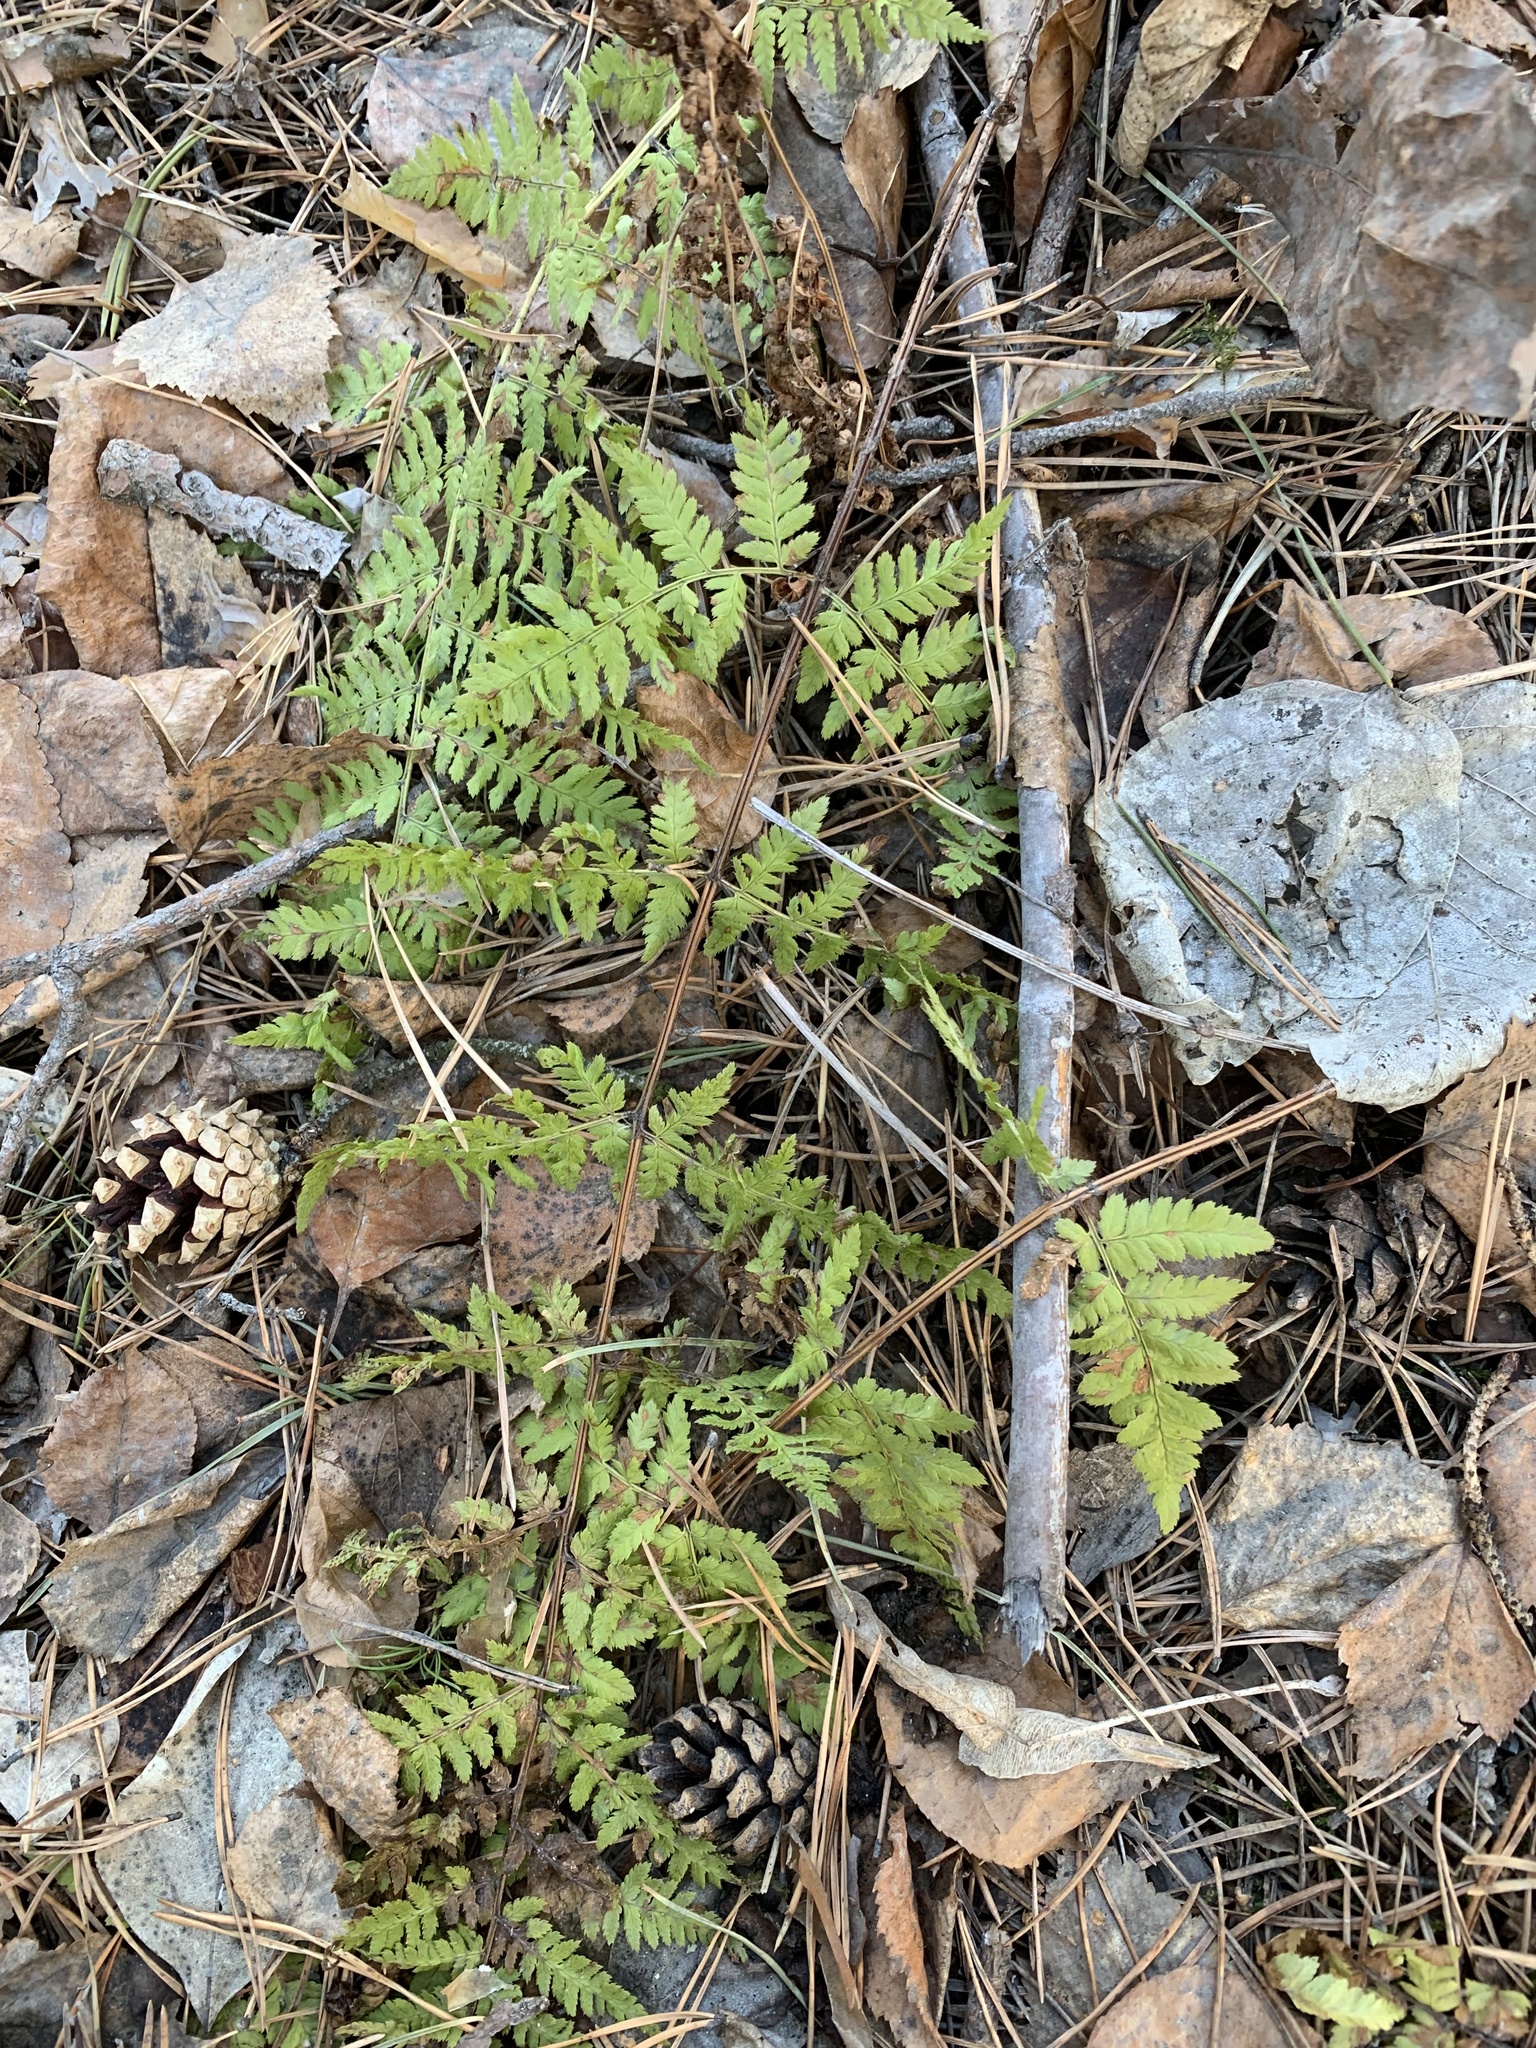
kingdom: Plantae
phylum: Tracheophyta
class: Polypodiopsida
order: Polypodiales
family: Dryopteridaceae
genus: Dryopteris
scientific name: Dryopteris carthusiana
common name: Narrow buckler-fern
